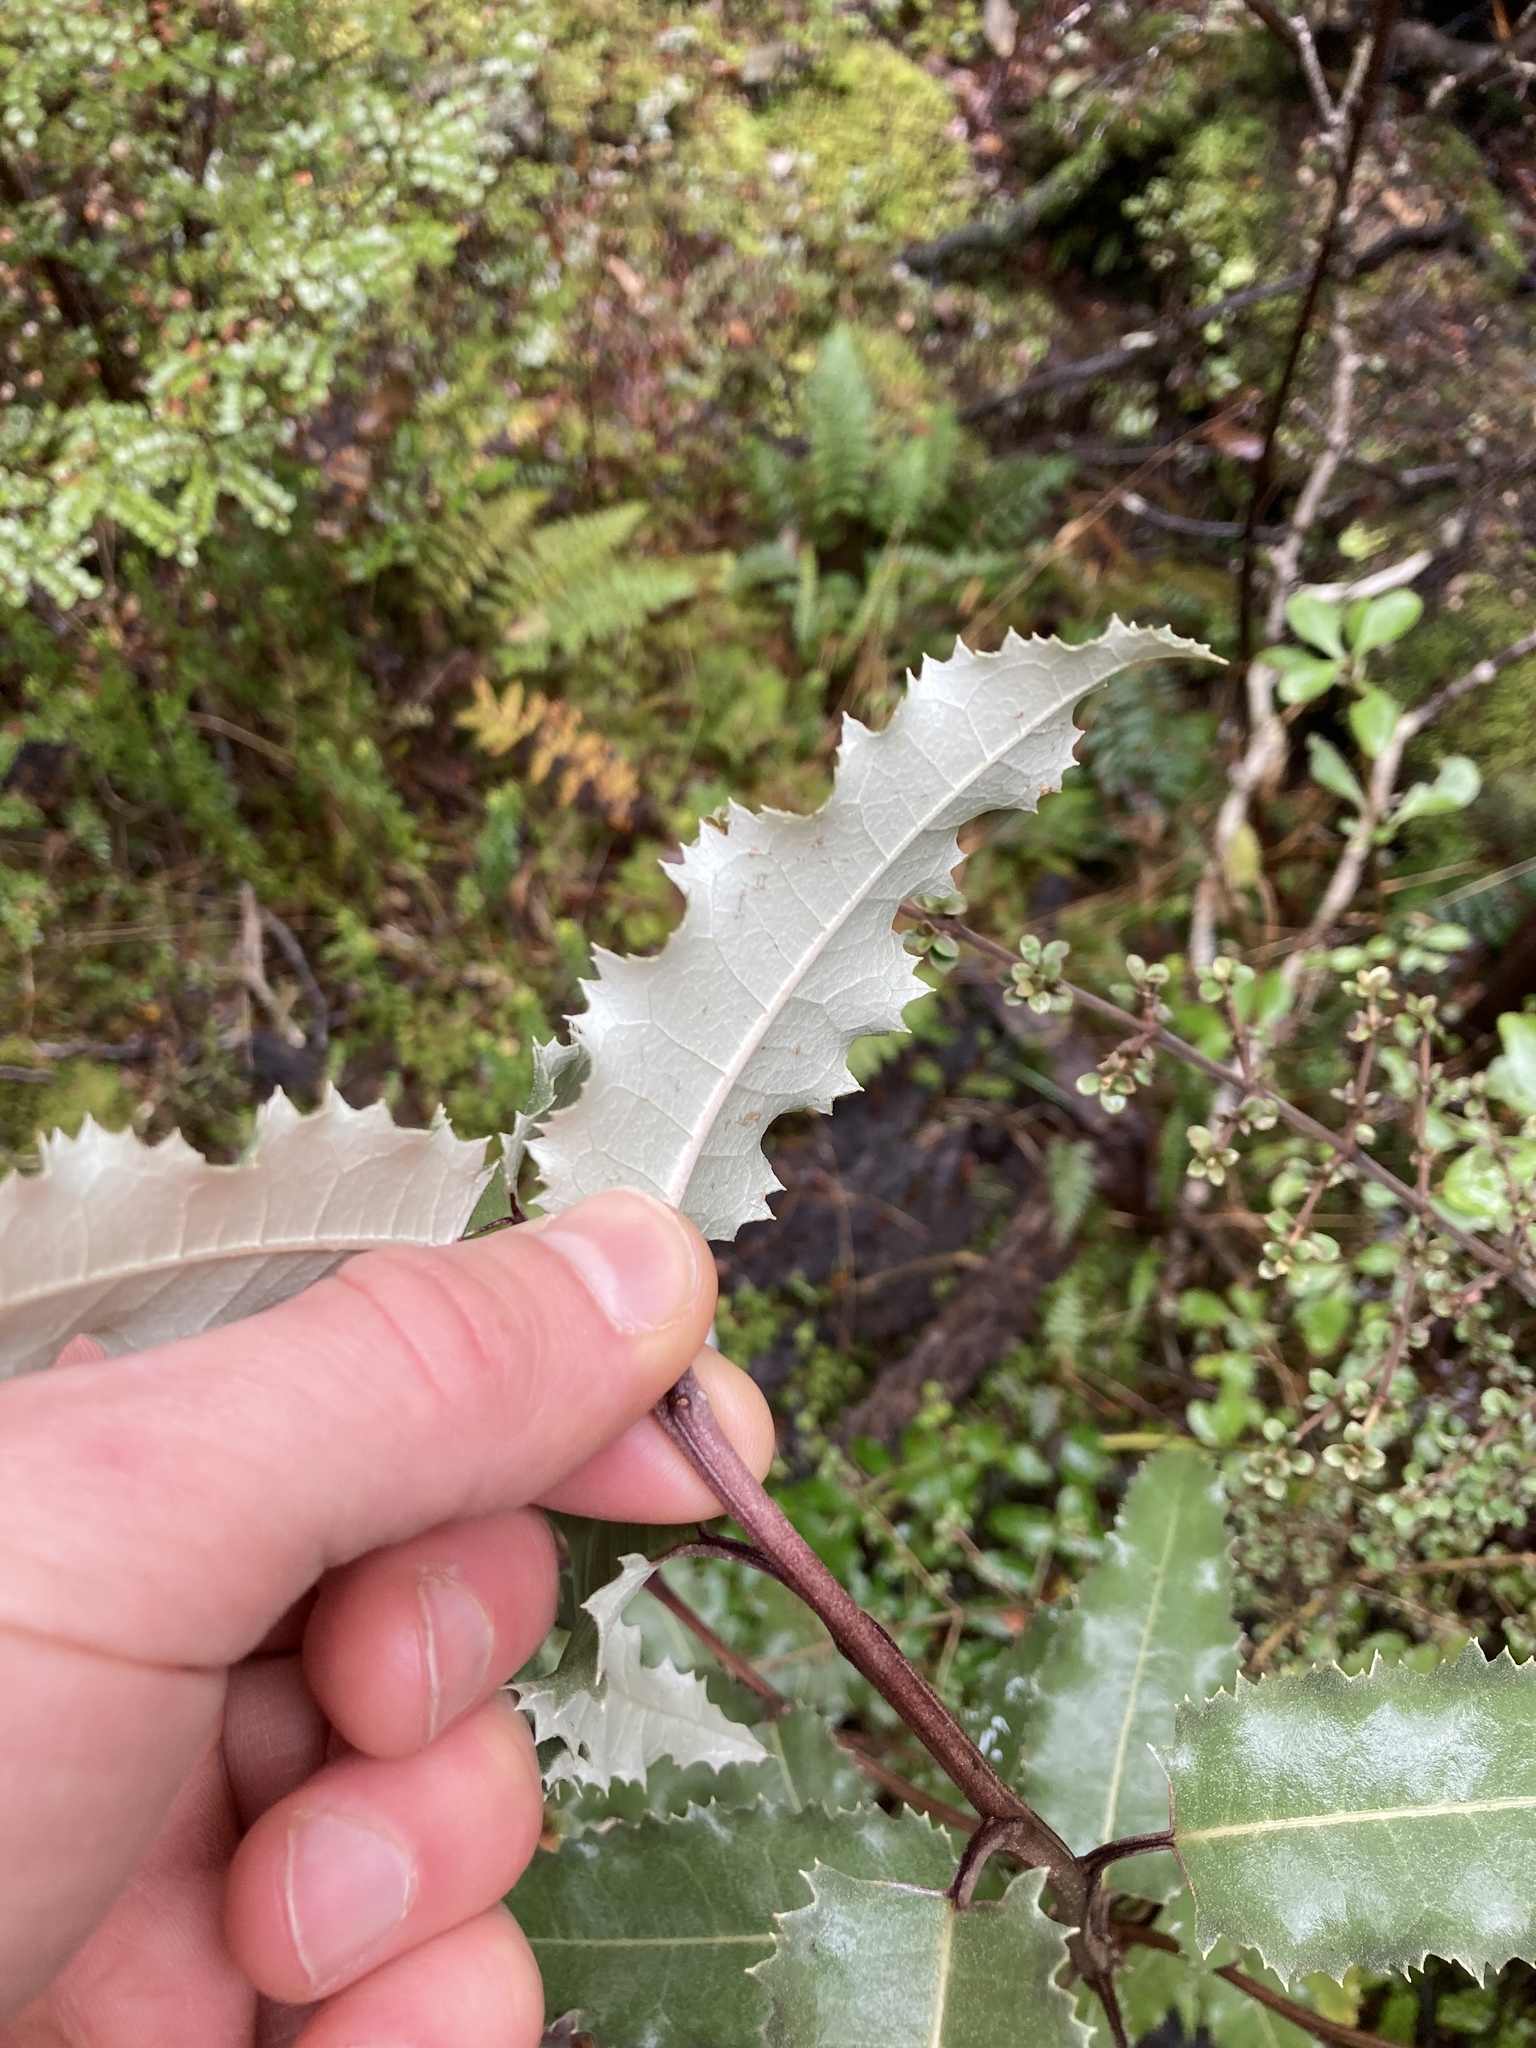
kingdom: Plantae
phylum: Tracheophyta
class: Magnoliopsida
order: Asterales
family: Asteraceae
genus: Olearia
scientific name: Olearia ilicifolia
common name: Maori-holly
